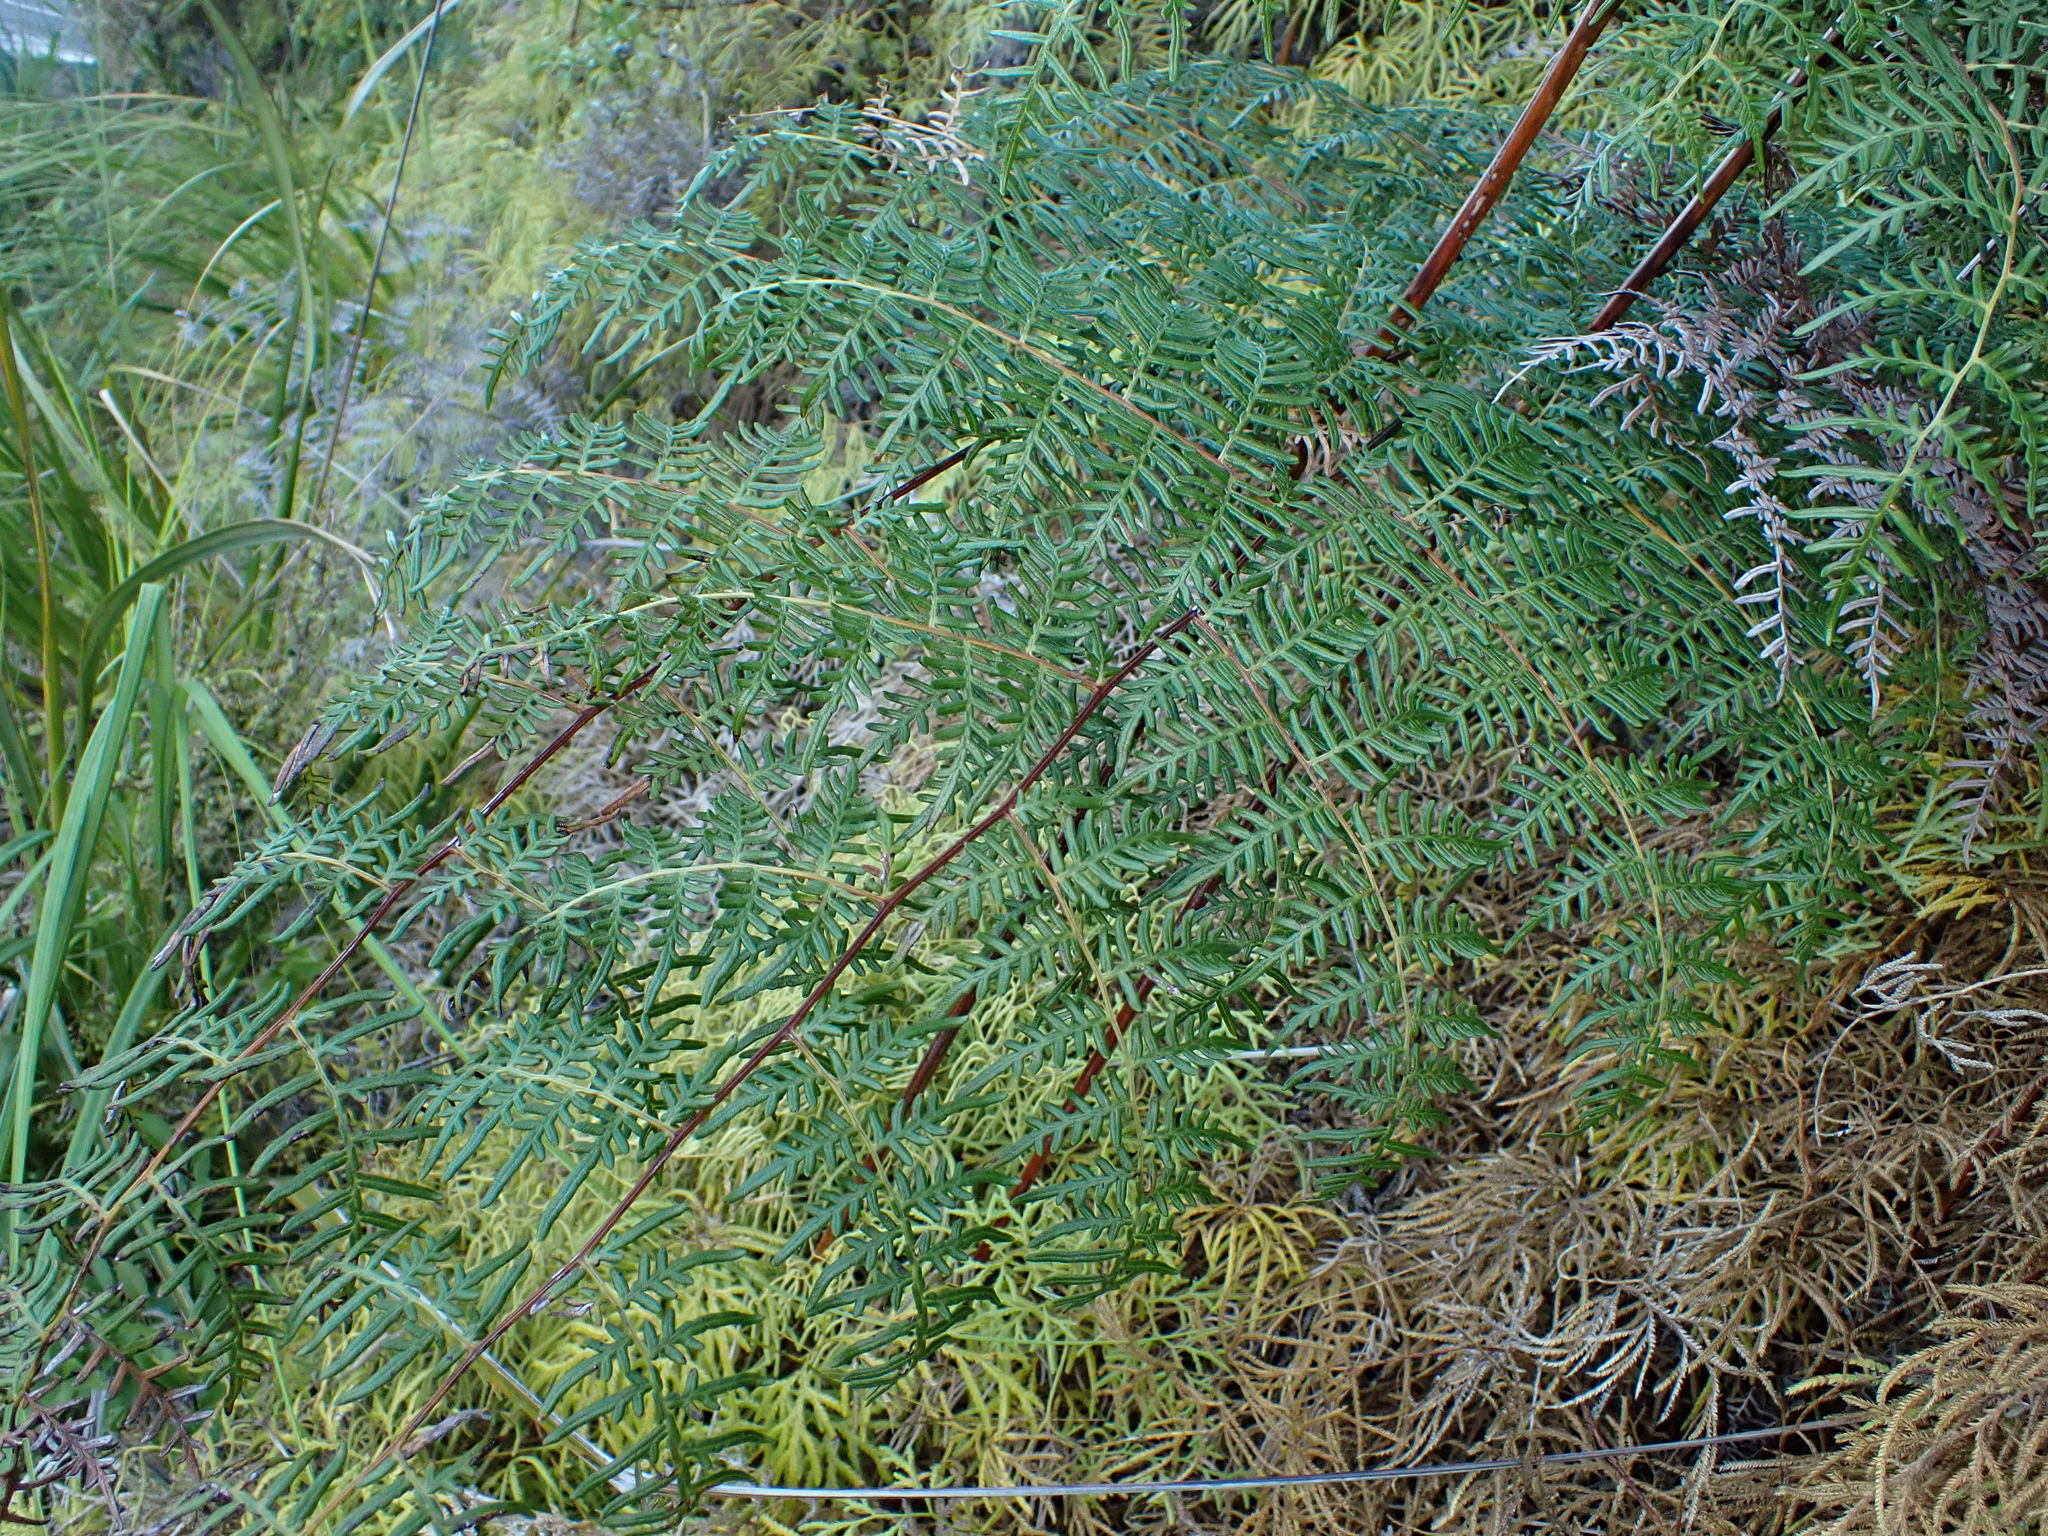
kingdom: Plantae
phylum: Tracheophyta
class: Polypodiopsida
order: Polypodiales
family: Dennstaedtiaceae
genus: Pteridium
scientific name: Pteridium esculentum
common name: Bracken fern
